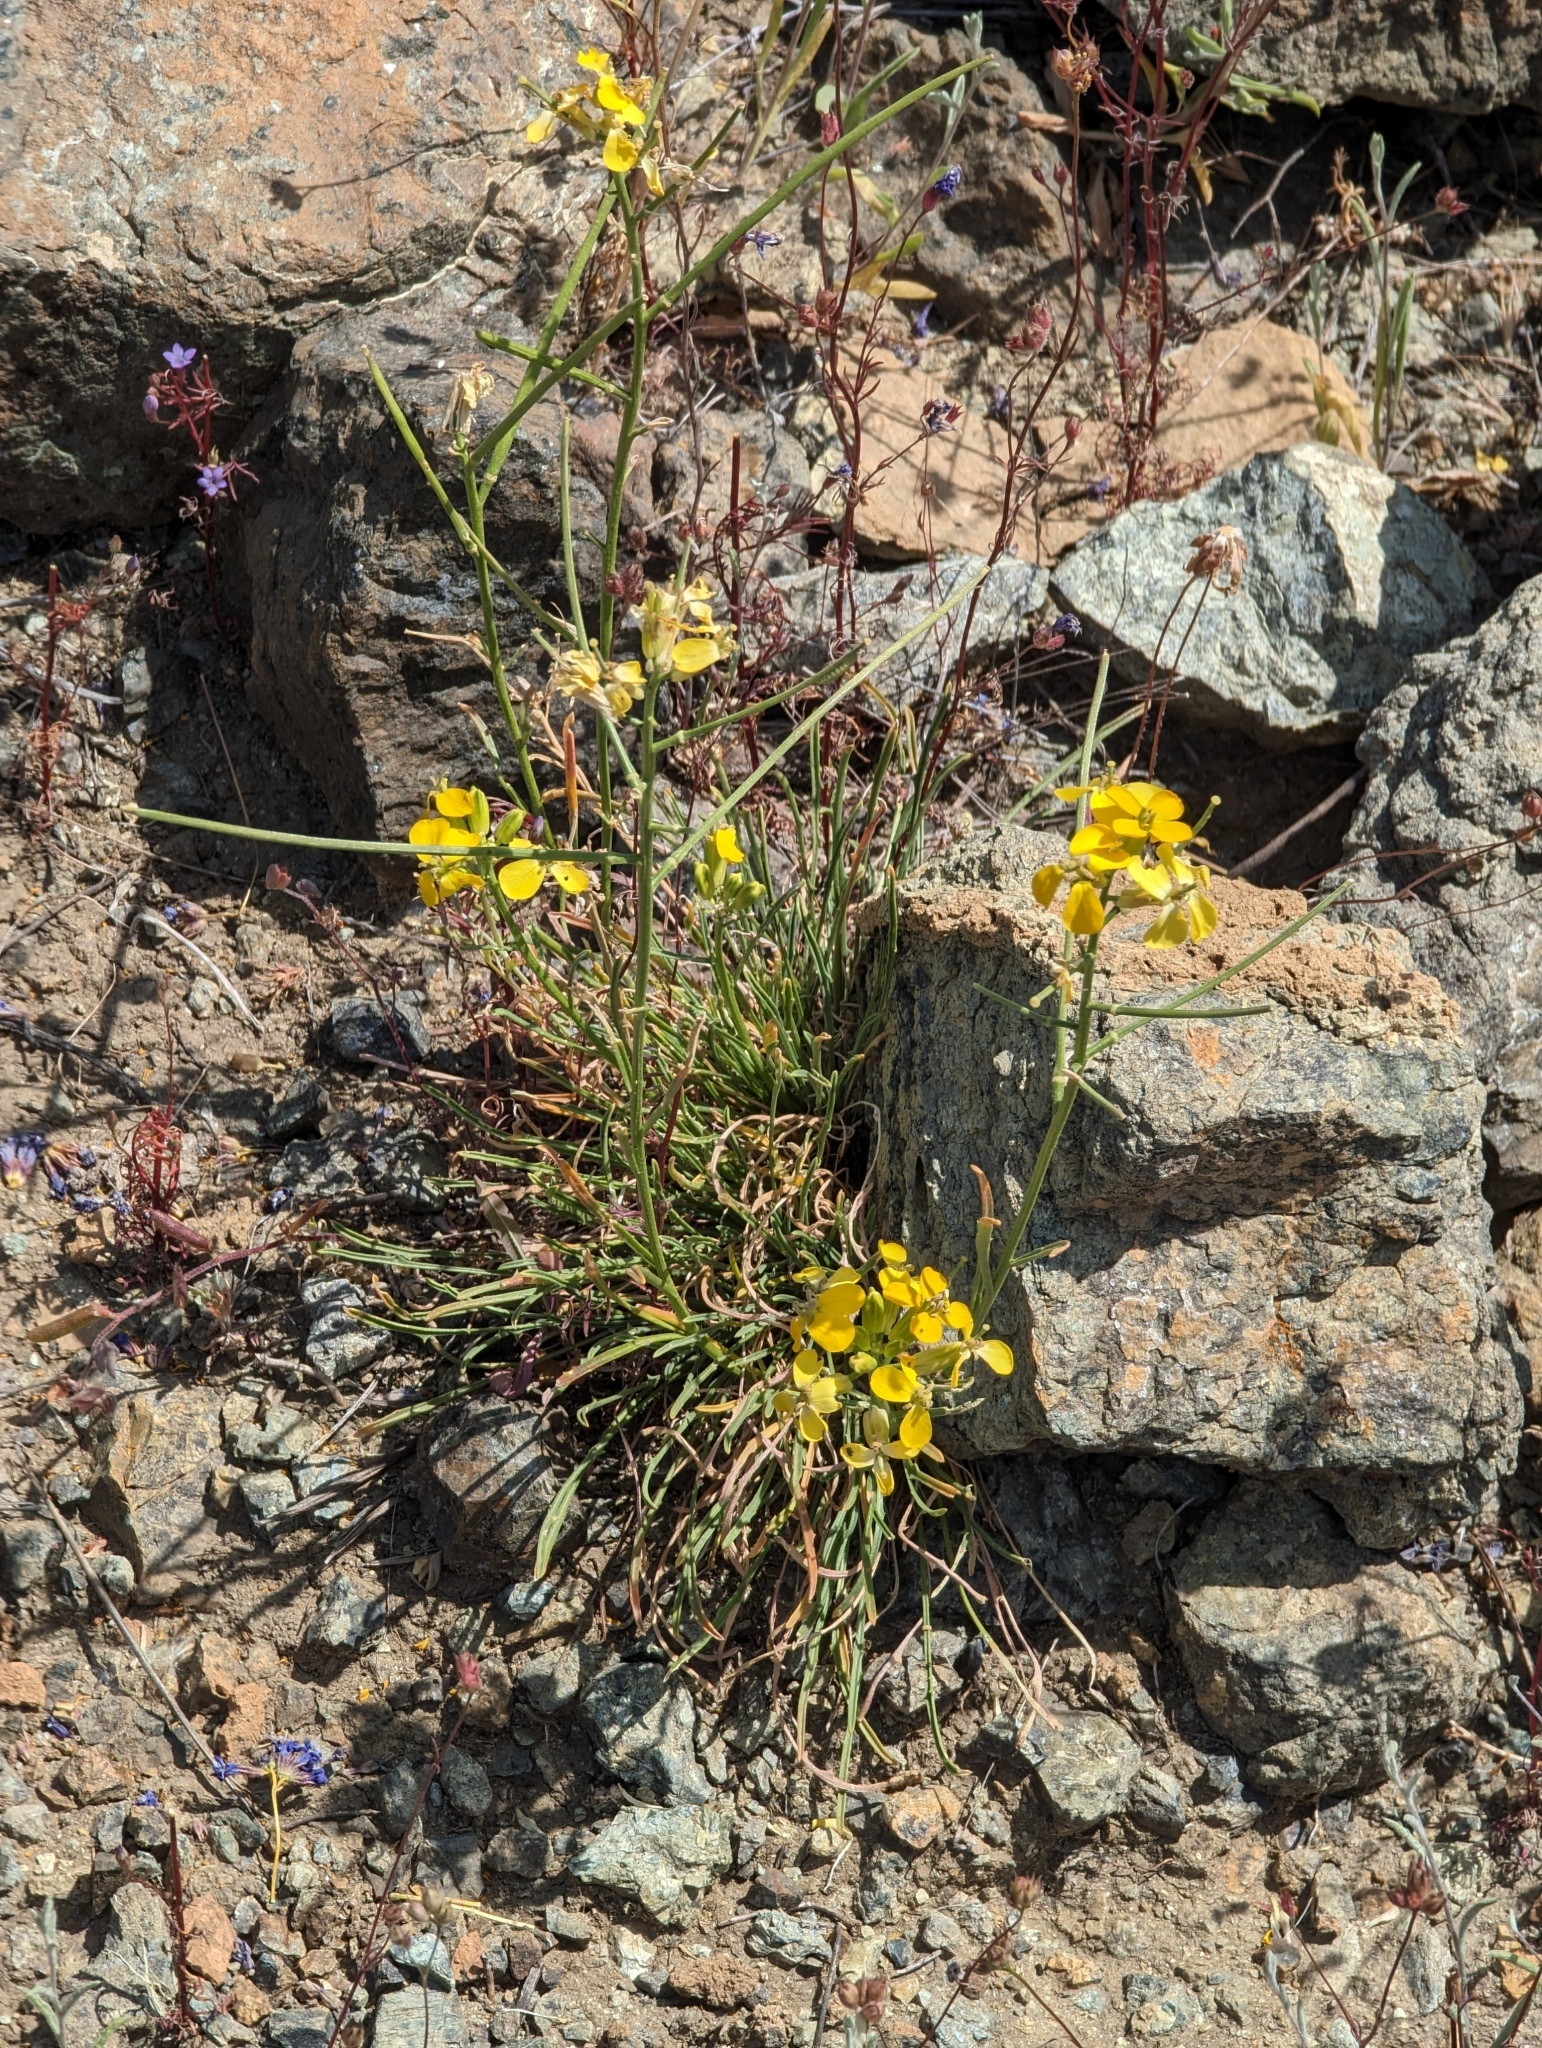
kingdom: Plantae
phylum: Tracheophyta
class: Magnoliopsida
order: Brassicales
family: Brassicaceae
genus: Erysimum
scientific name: Erysimum franciscanum
